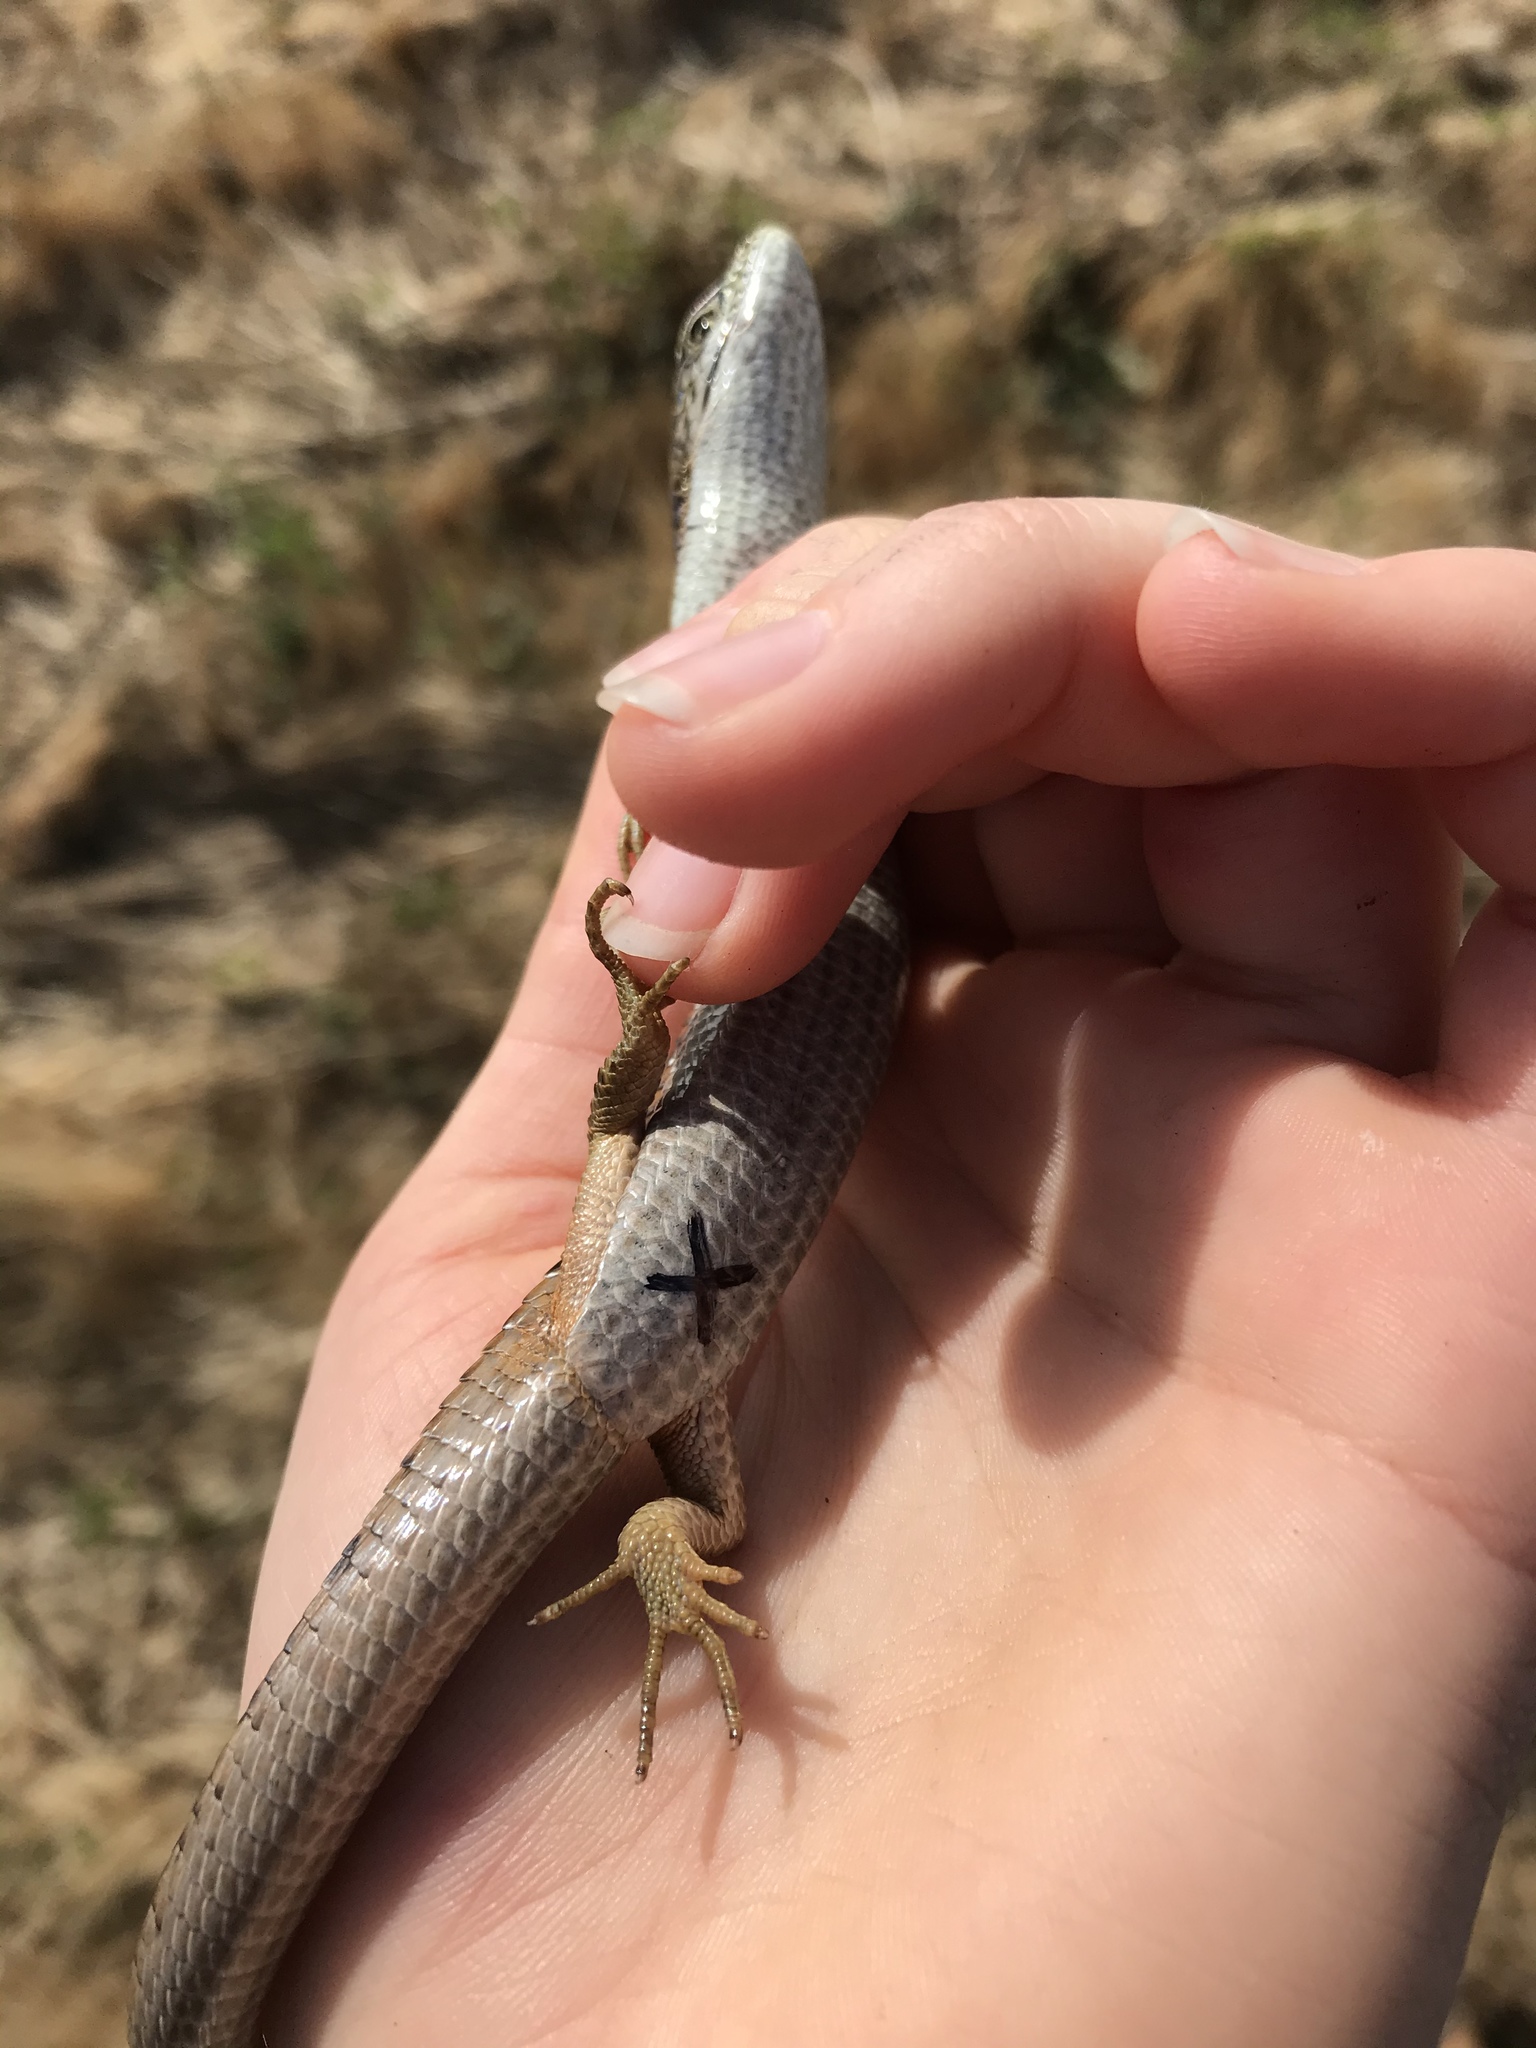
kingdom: Animalia
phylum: Chordata
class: Squamata
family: Anguidae
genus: Elgaria
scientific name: Elgaria multicarinata
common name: Southern alligator lizard
